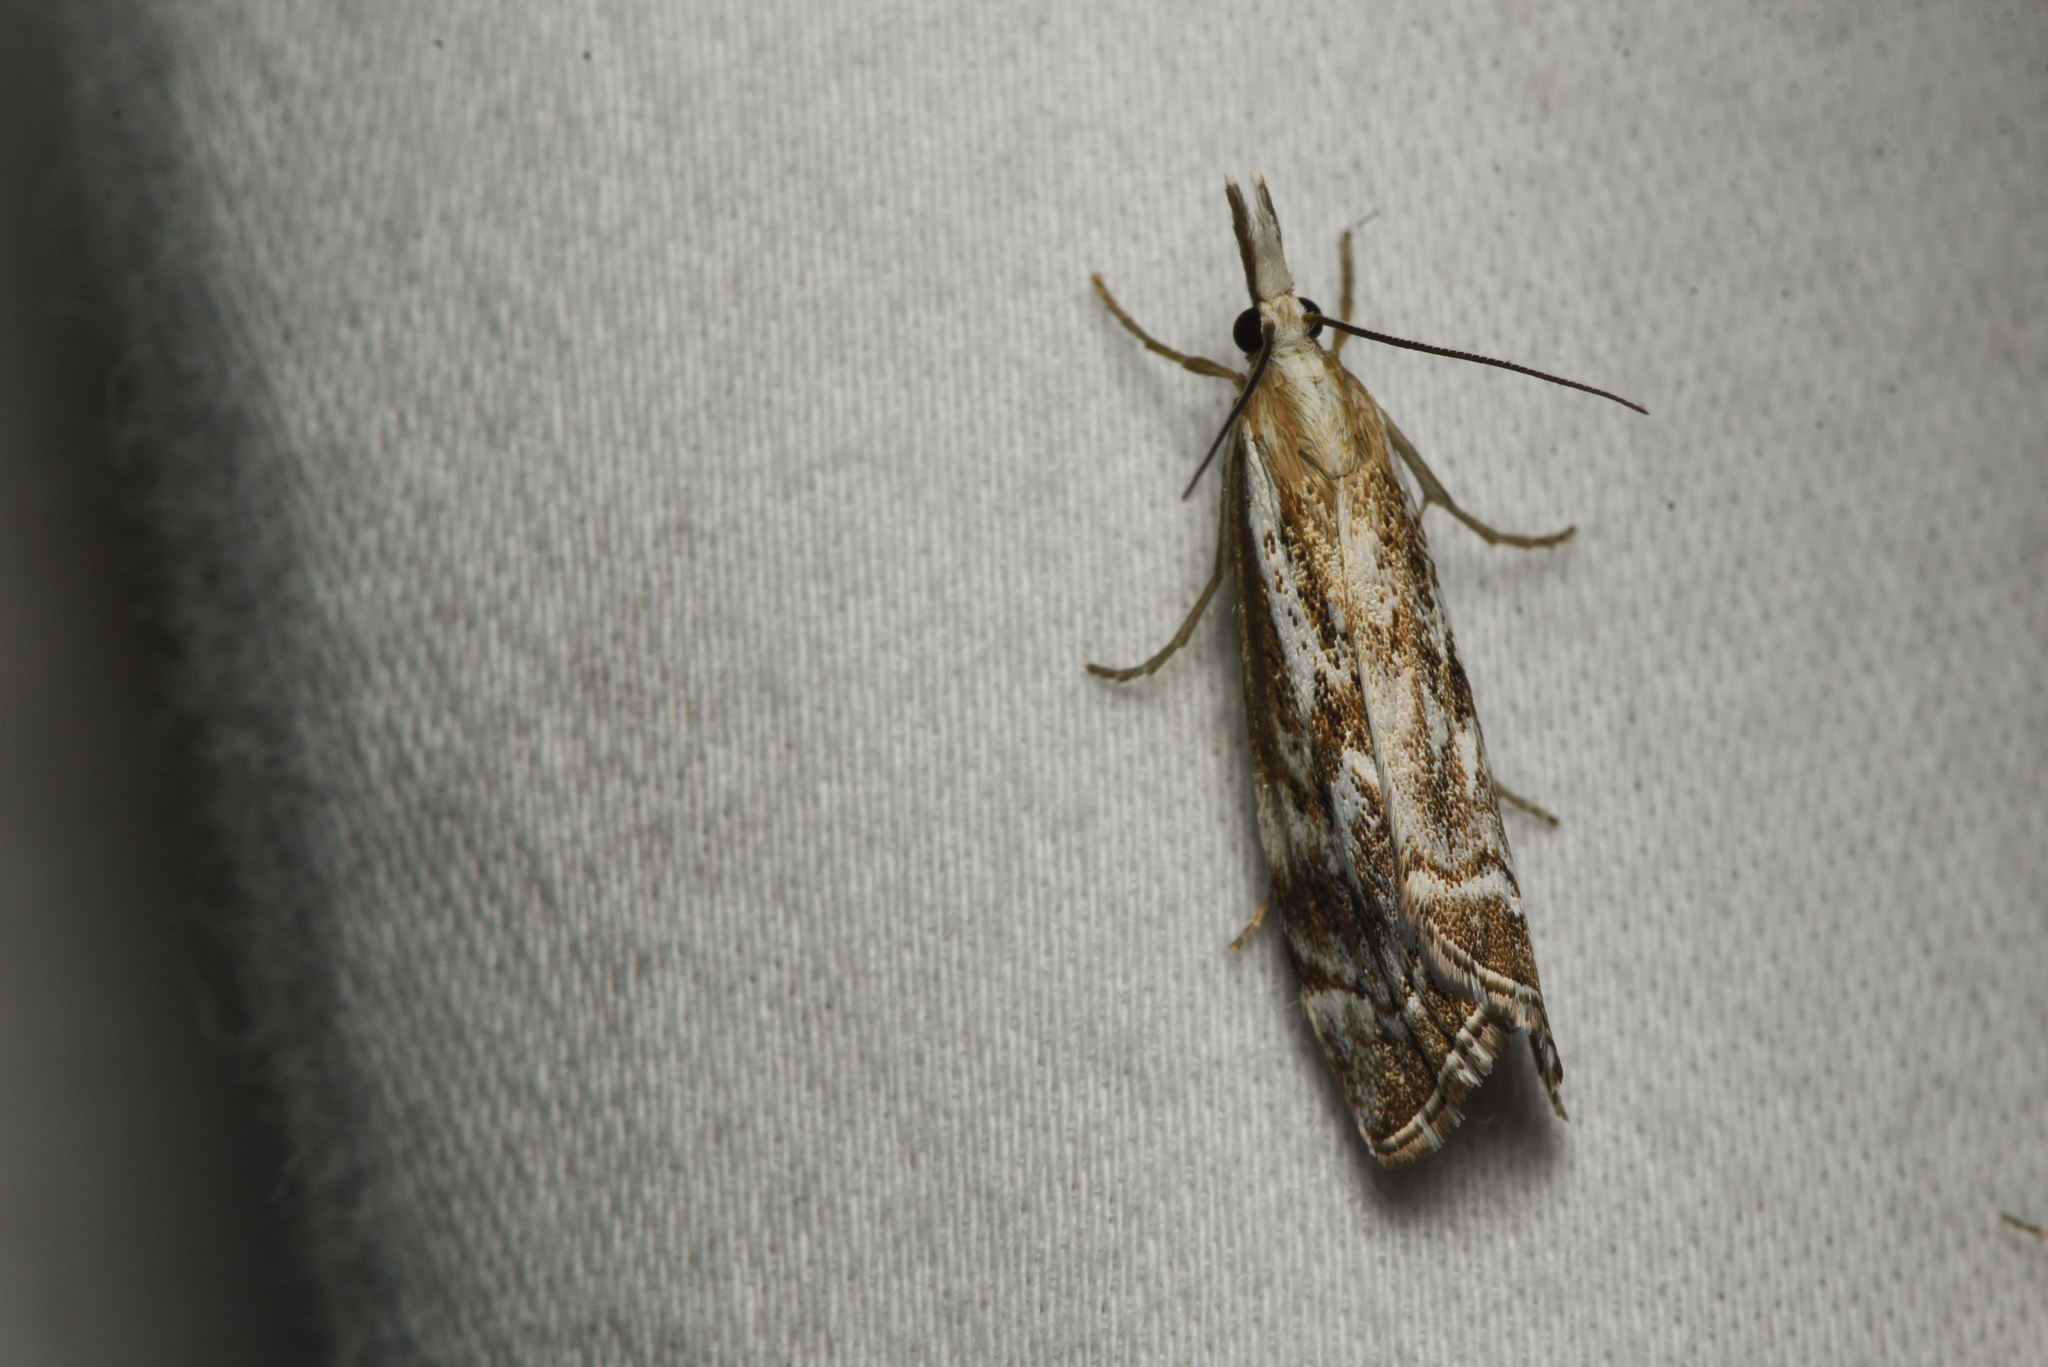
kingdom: Animalia
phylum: Arthropoda
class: Insecta
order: Lepidoptera
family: Crambidae
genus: Catoptria
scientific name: Catoptria oregonicus
